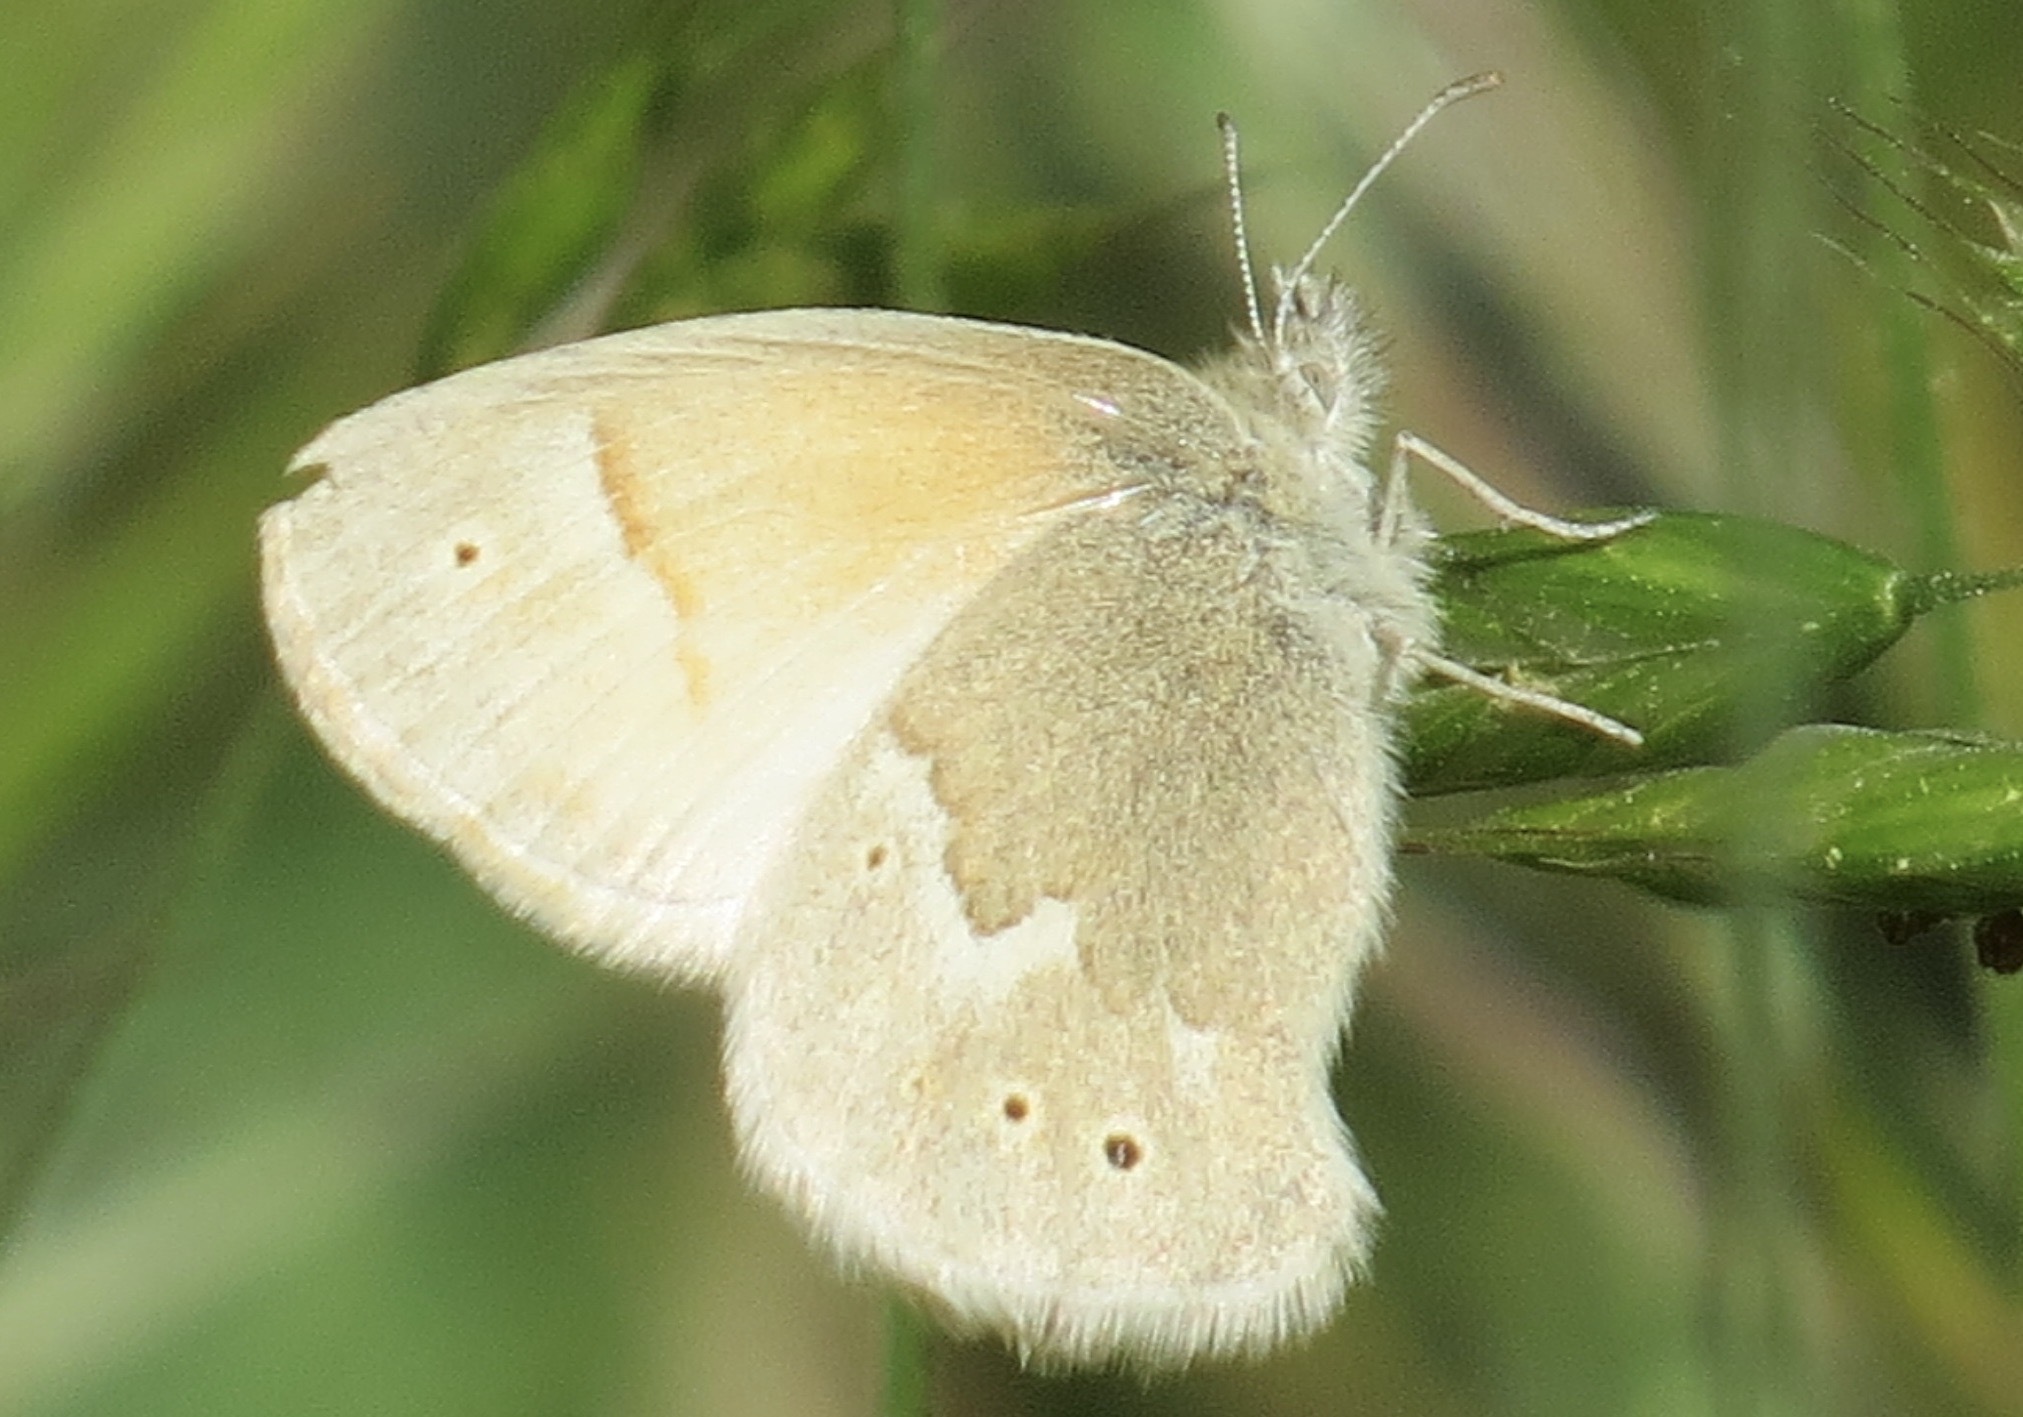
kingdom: Animalia
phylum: Arthropoda
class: Insecta
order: Lepidoptera
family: Nymphalidae
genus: Coenonympha
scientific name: Coenonympha california
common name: Common ringlet
